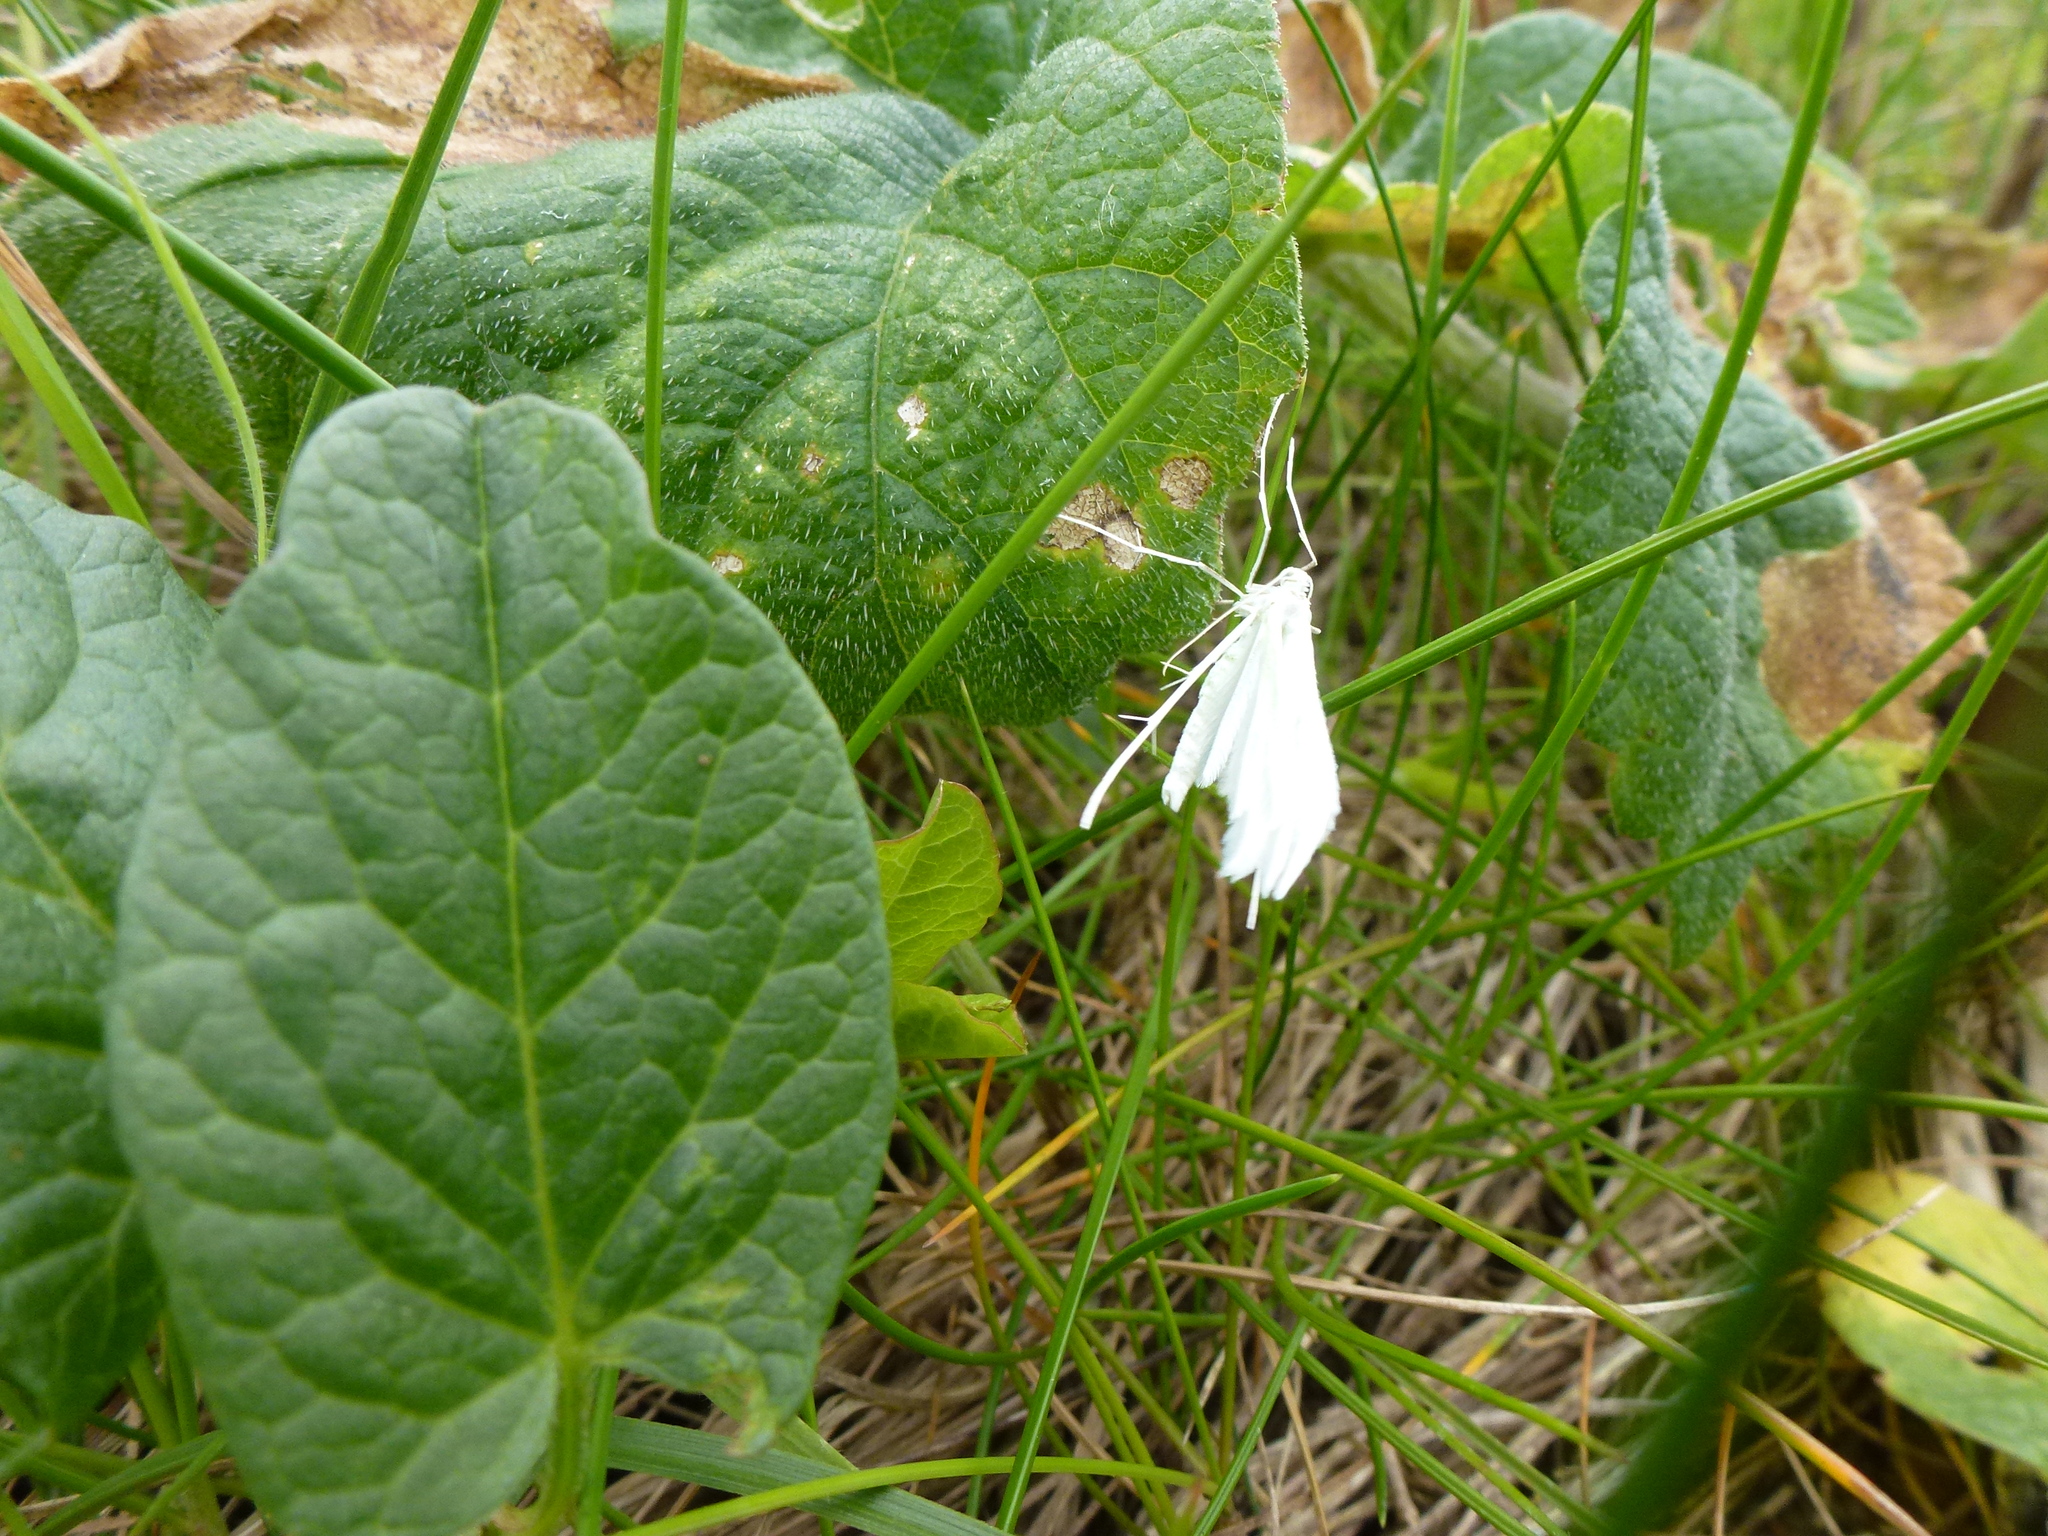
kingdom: Animalia
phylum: Arthropoda
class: Insecta
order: Lepidoptera
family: Pterophoridae
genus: Pterophorus
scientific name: Pterophorus pentadactyla
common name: White plume moth
